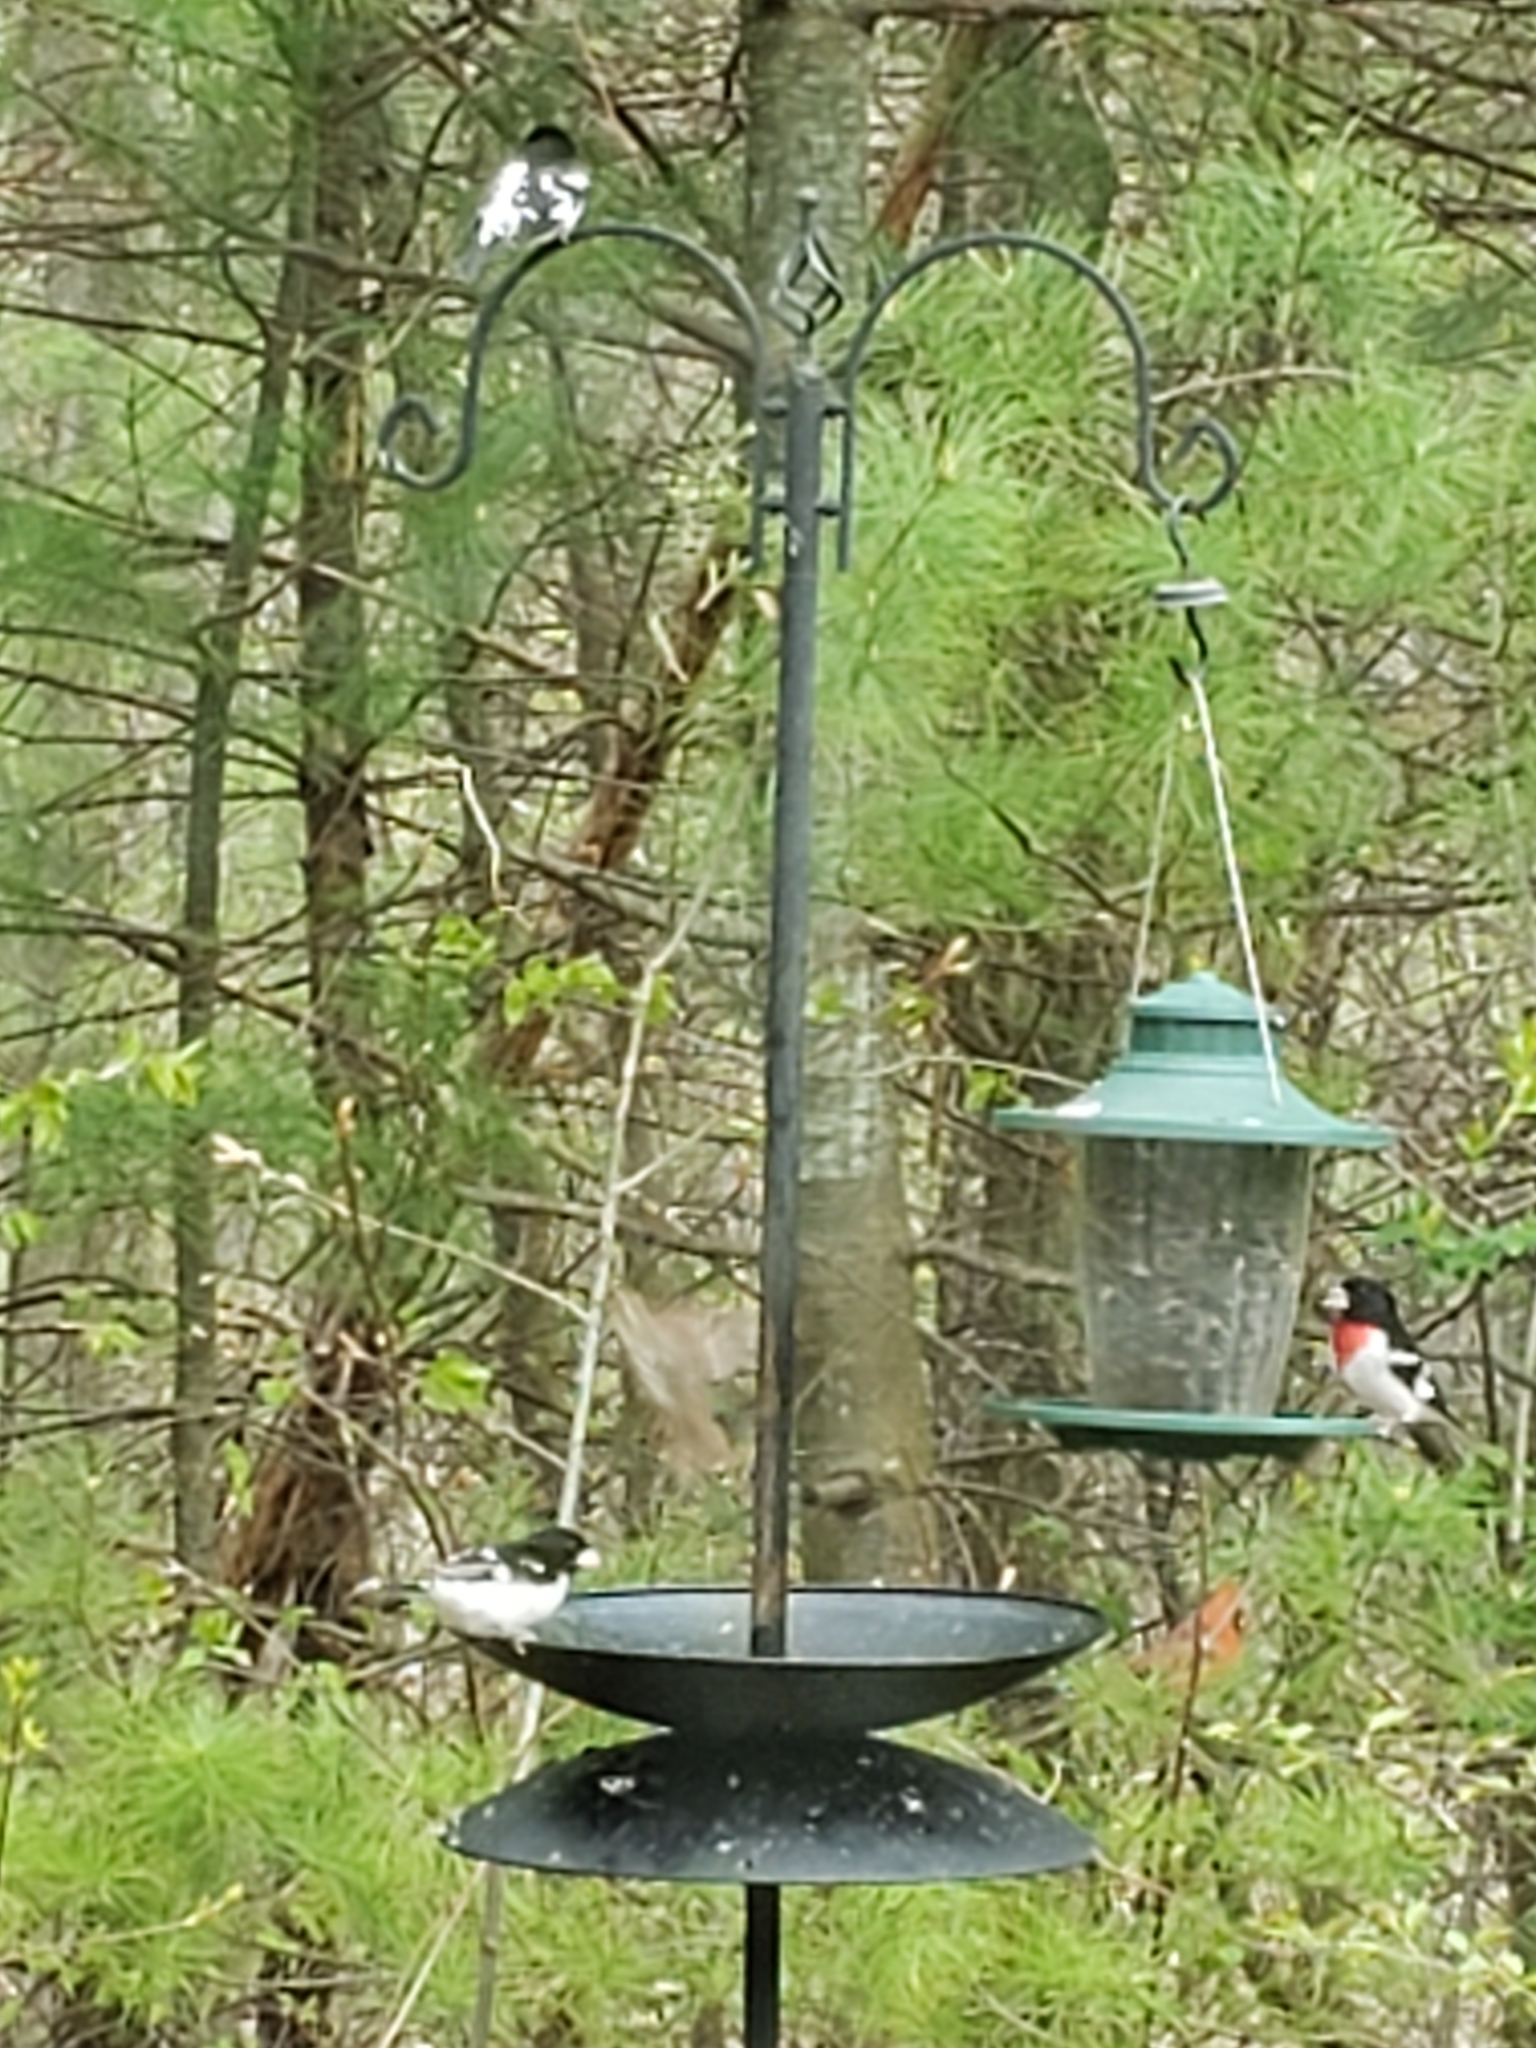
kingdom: Animalia
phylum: Chordata
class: Aves
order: Passeriformes
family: Cardinalidae
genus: Pheucticus
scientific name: Pheucticus ludovicianus
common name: Rose-breasted grosbeak
